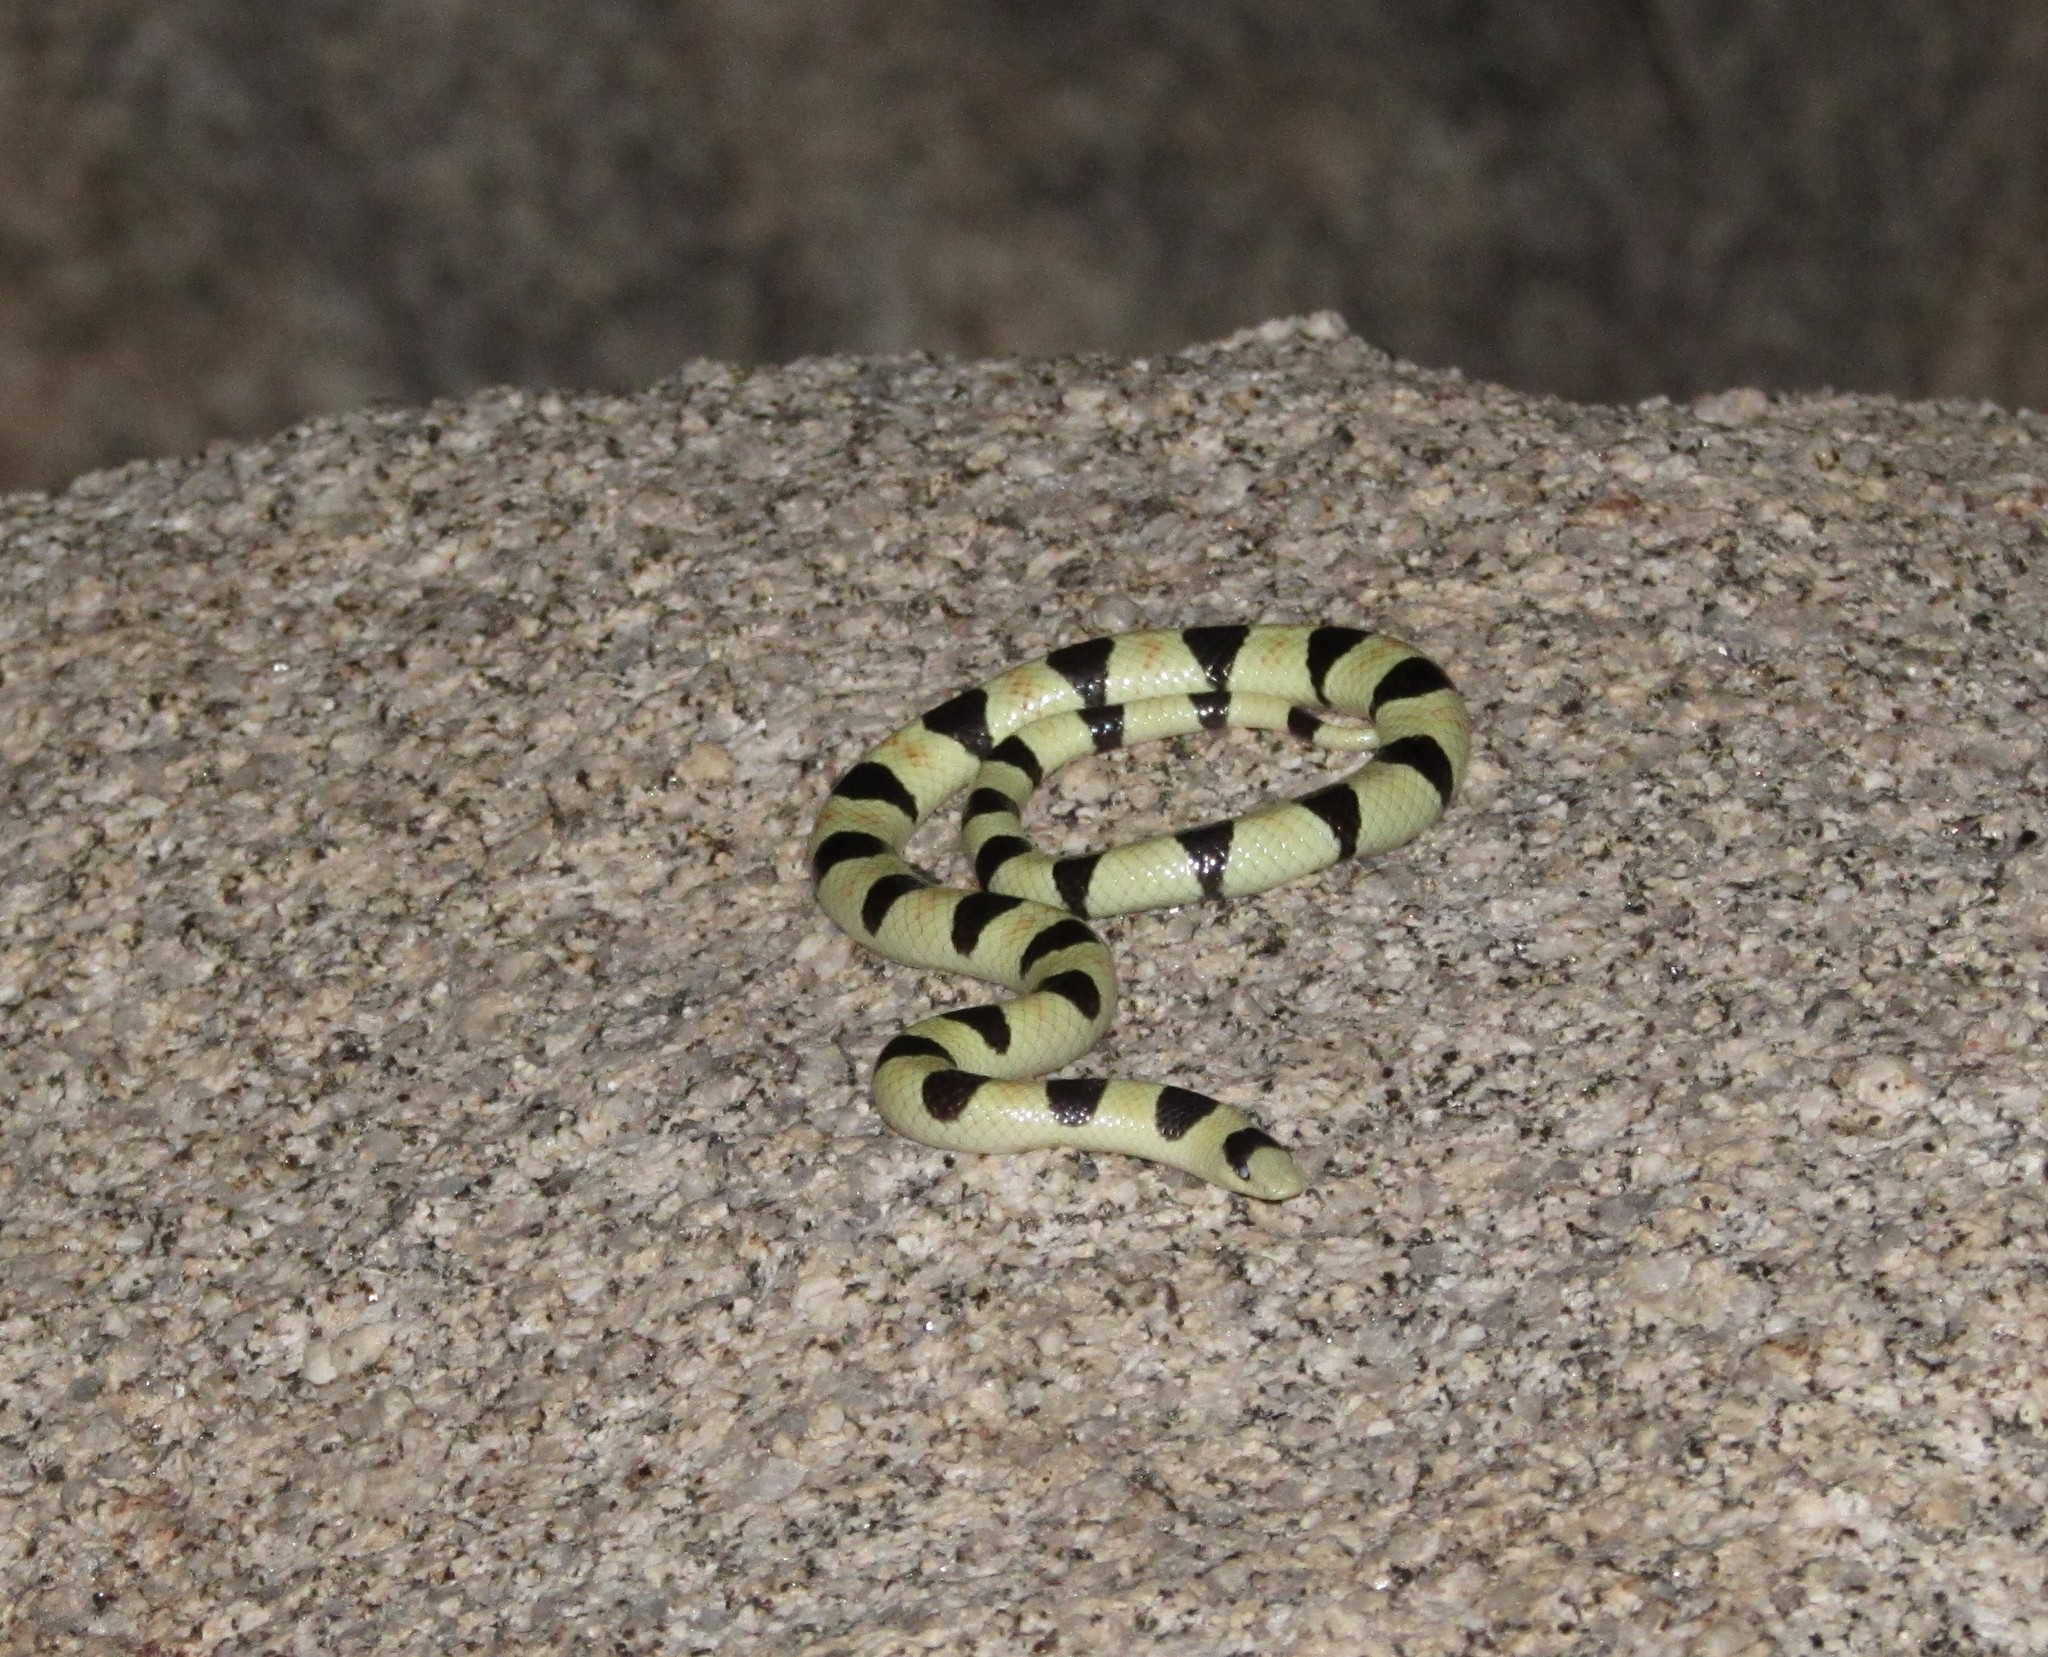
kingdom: Animalia
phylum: Chordata
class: Squamata
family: Colubridae
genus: Sonora
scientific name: Sonora annulata
